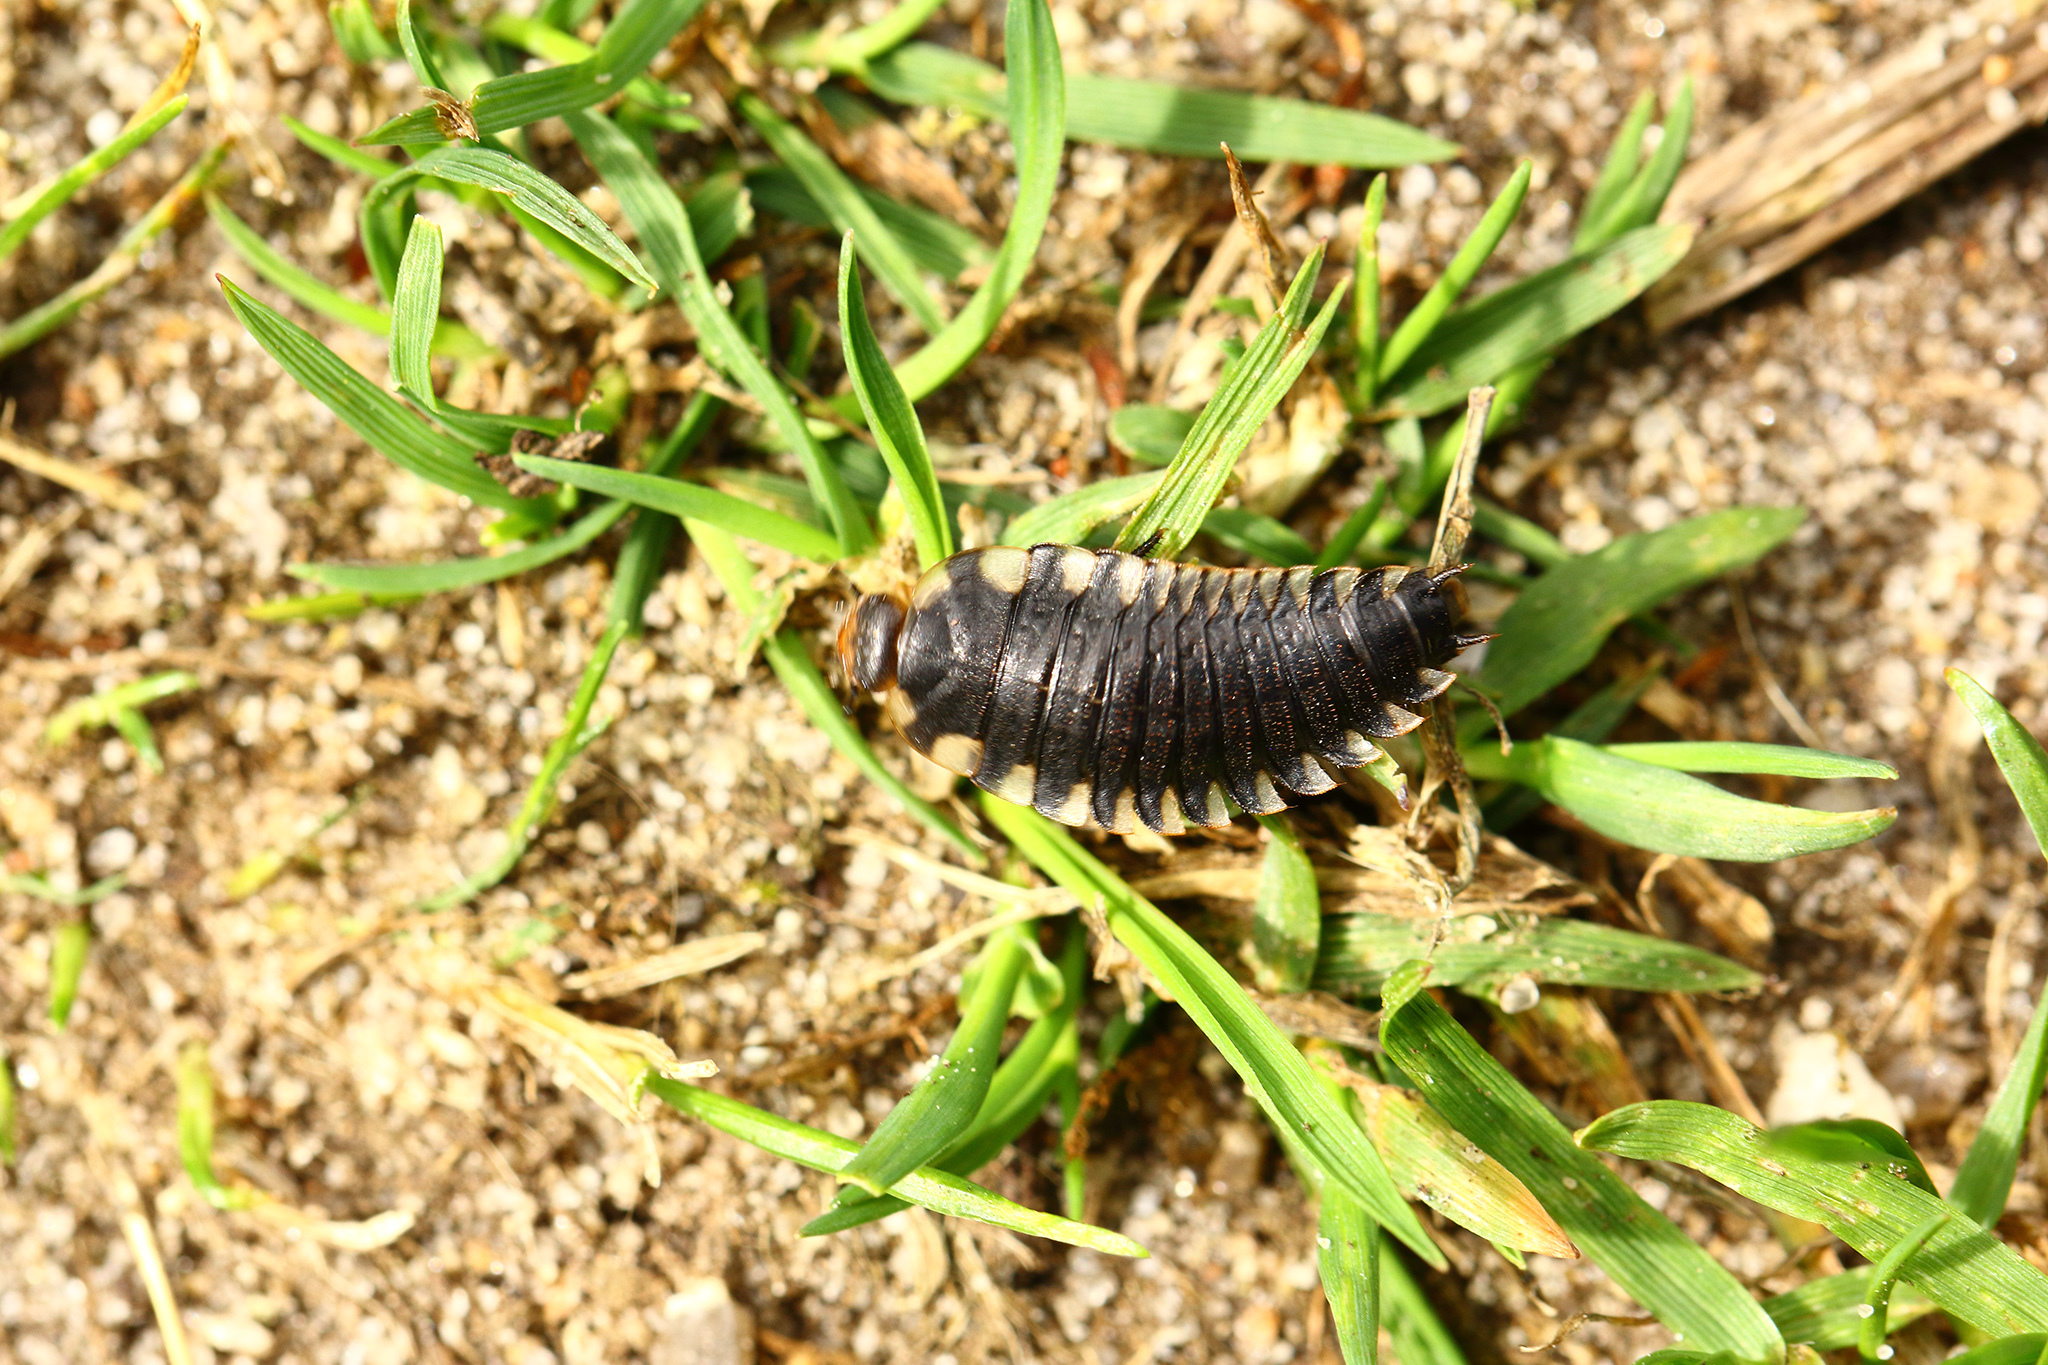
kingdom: Animalia
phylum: Arthropoda
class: Insecta
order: Coleoptera
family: Staphylinidae
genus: Oiceoptoma
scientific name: Oiceoptoma thoracicum
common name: Red-breasted carrion beetle
